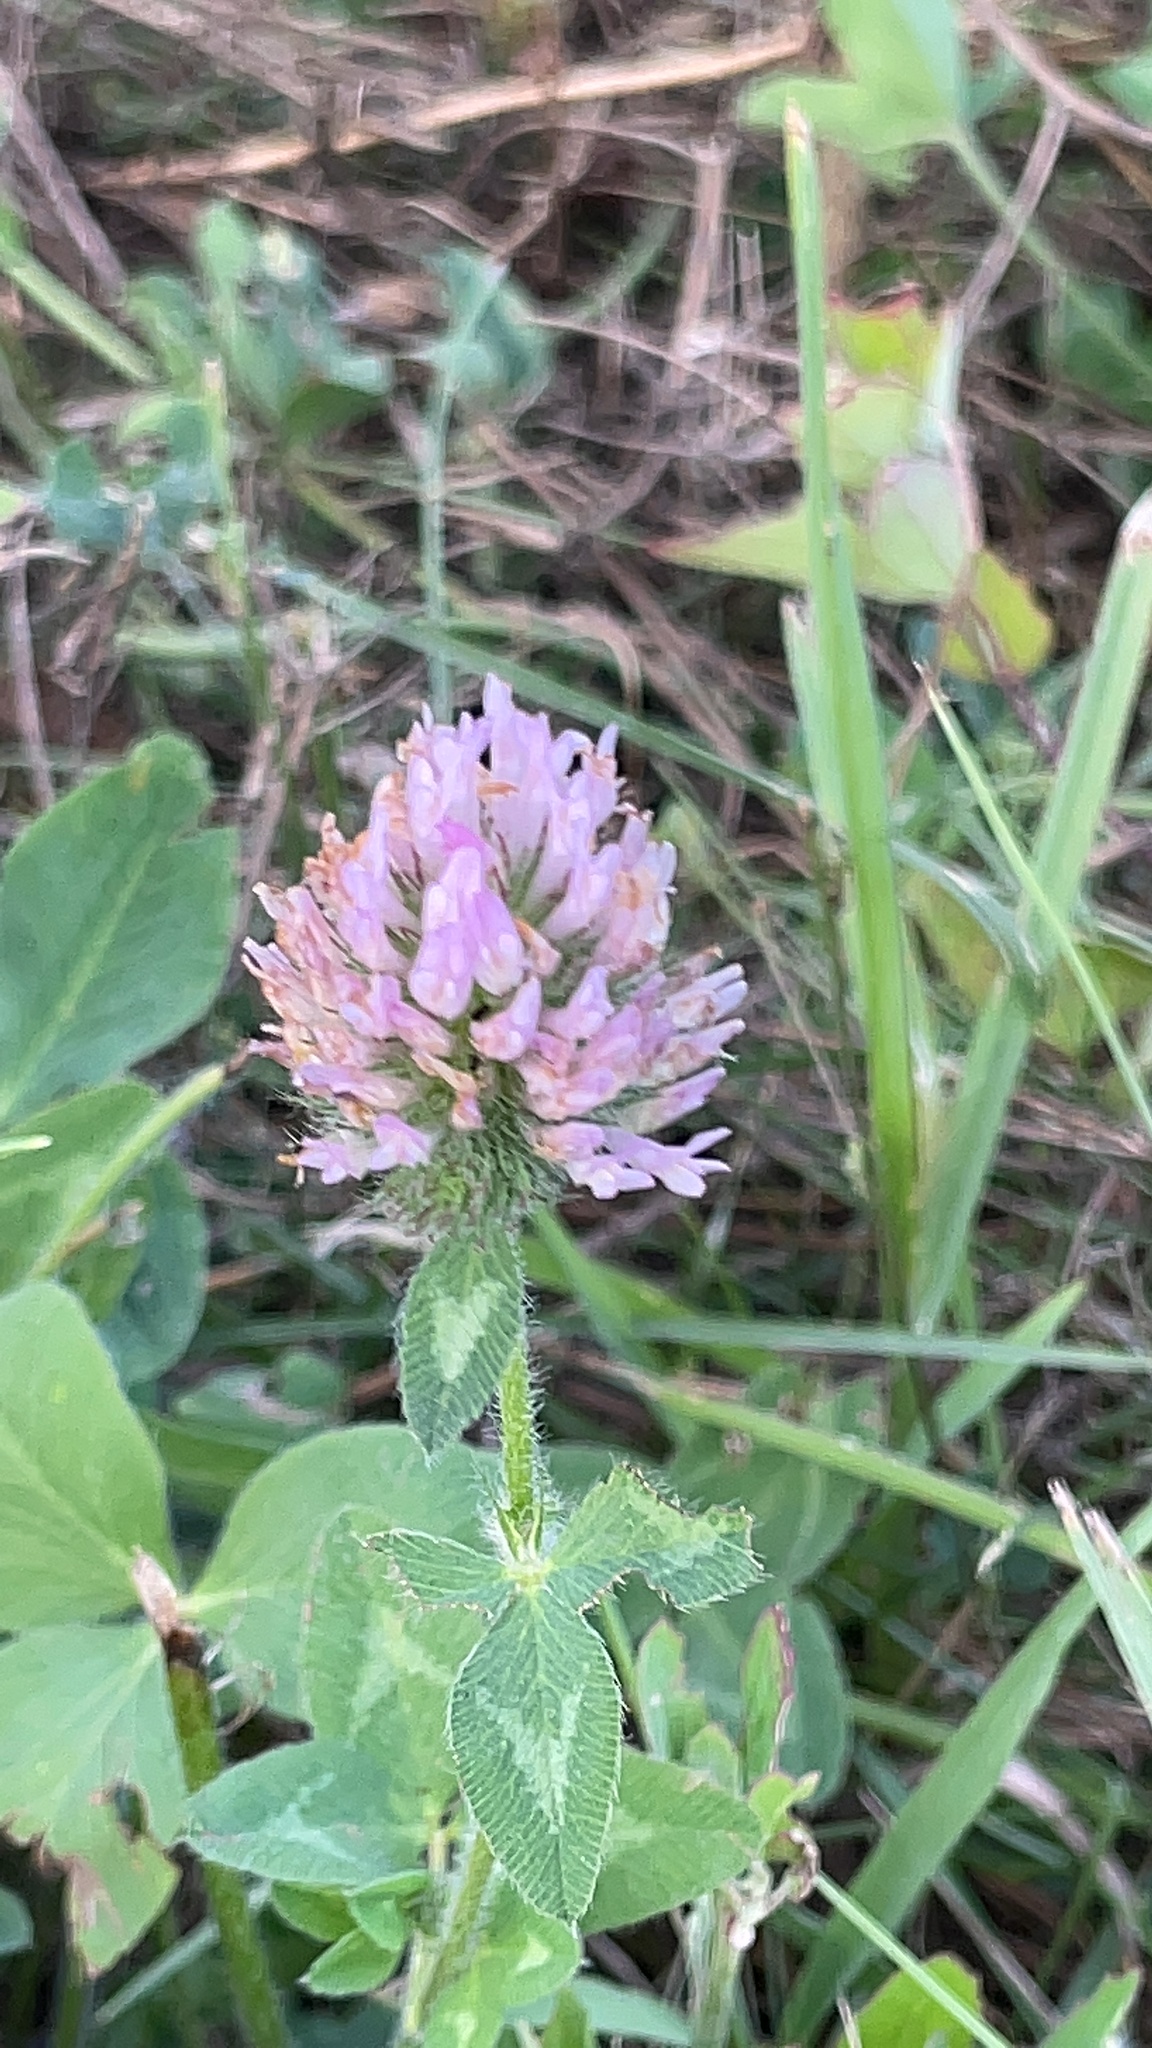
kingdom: Plantae
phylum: Tracheophyta
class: Magnoliopsida
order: Fabales
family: Fabaceae
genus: Trifolium
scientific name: Trifolium pratense
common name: Red clover
